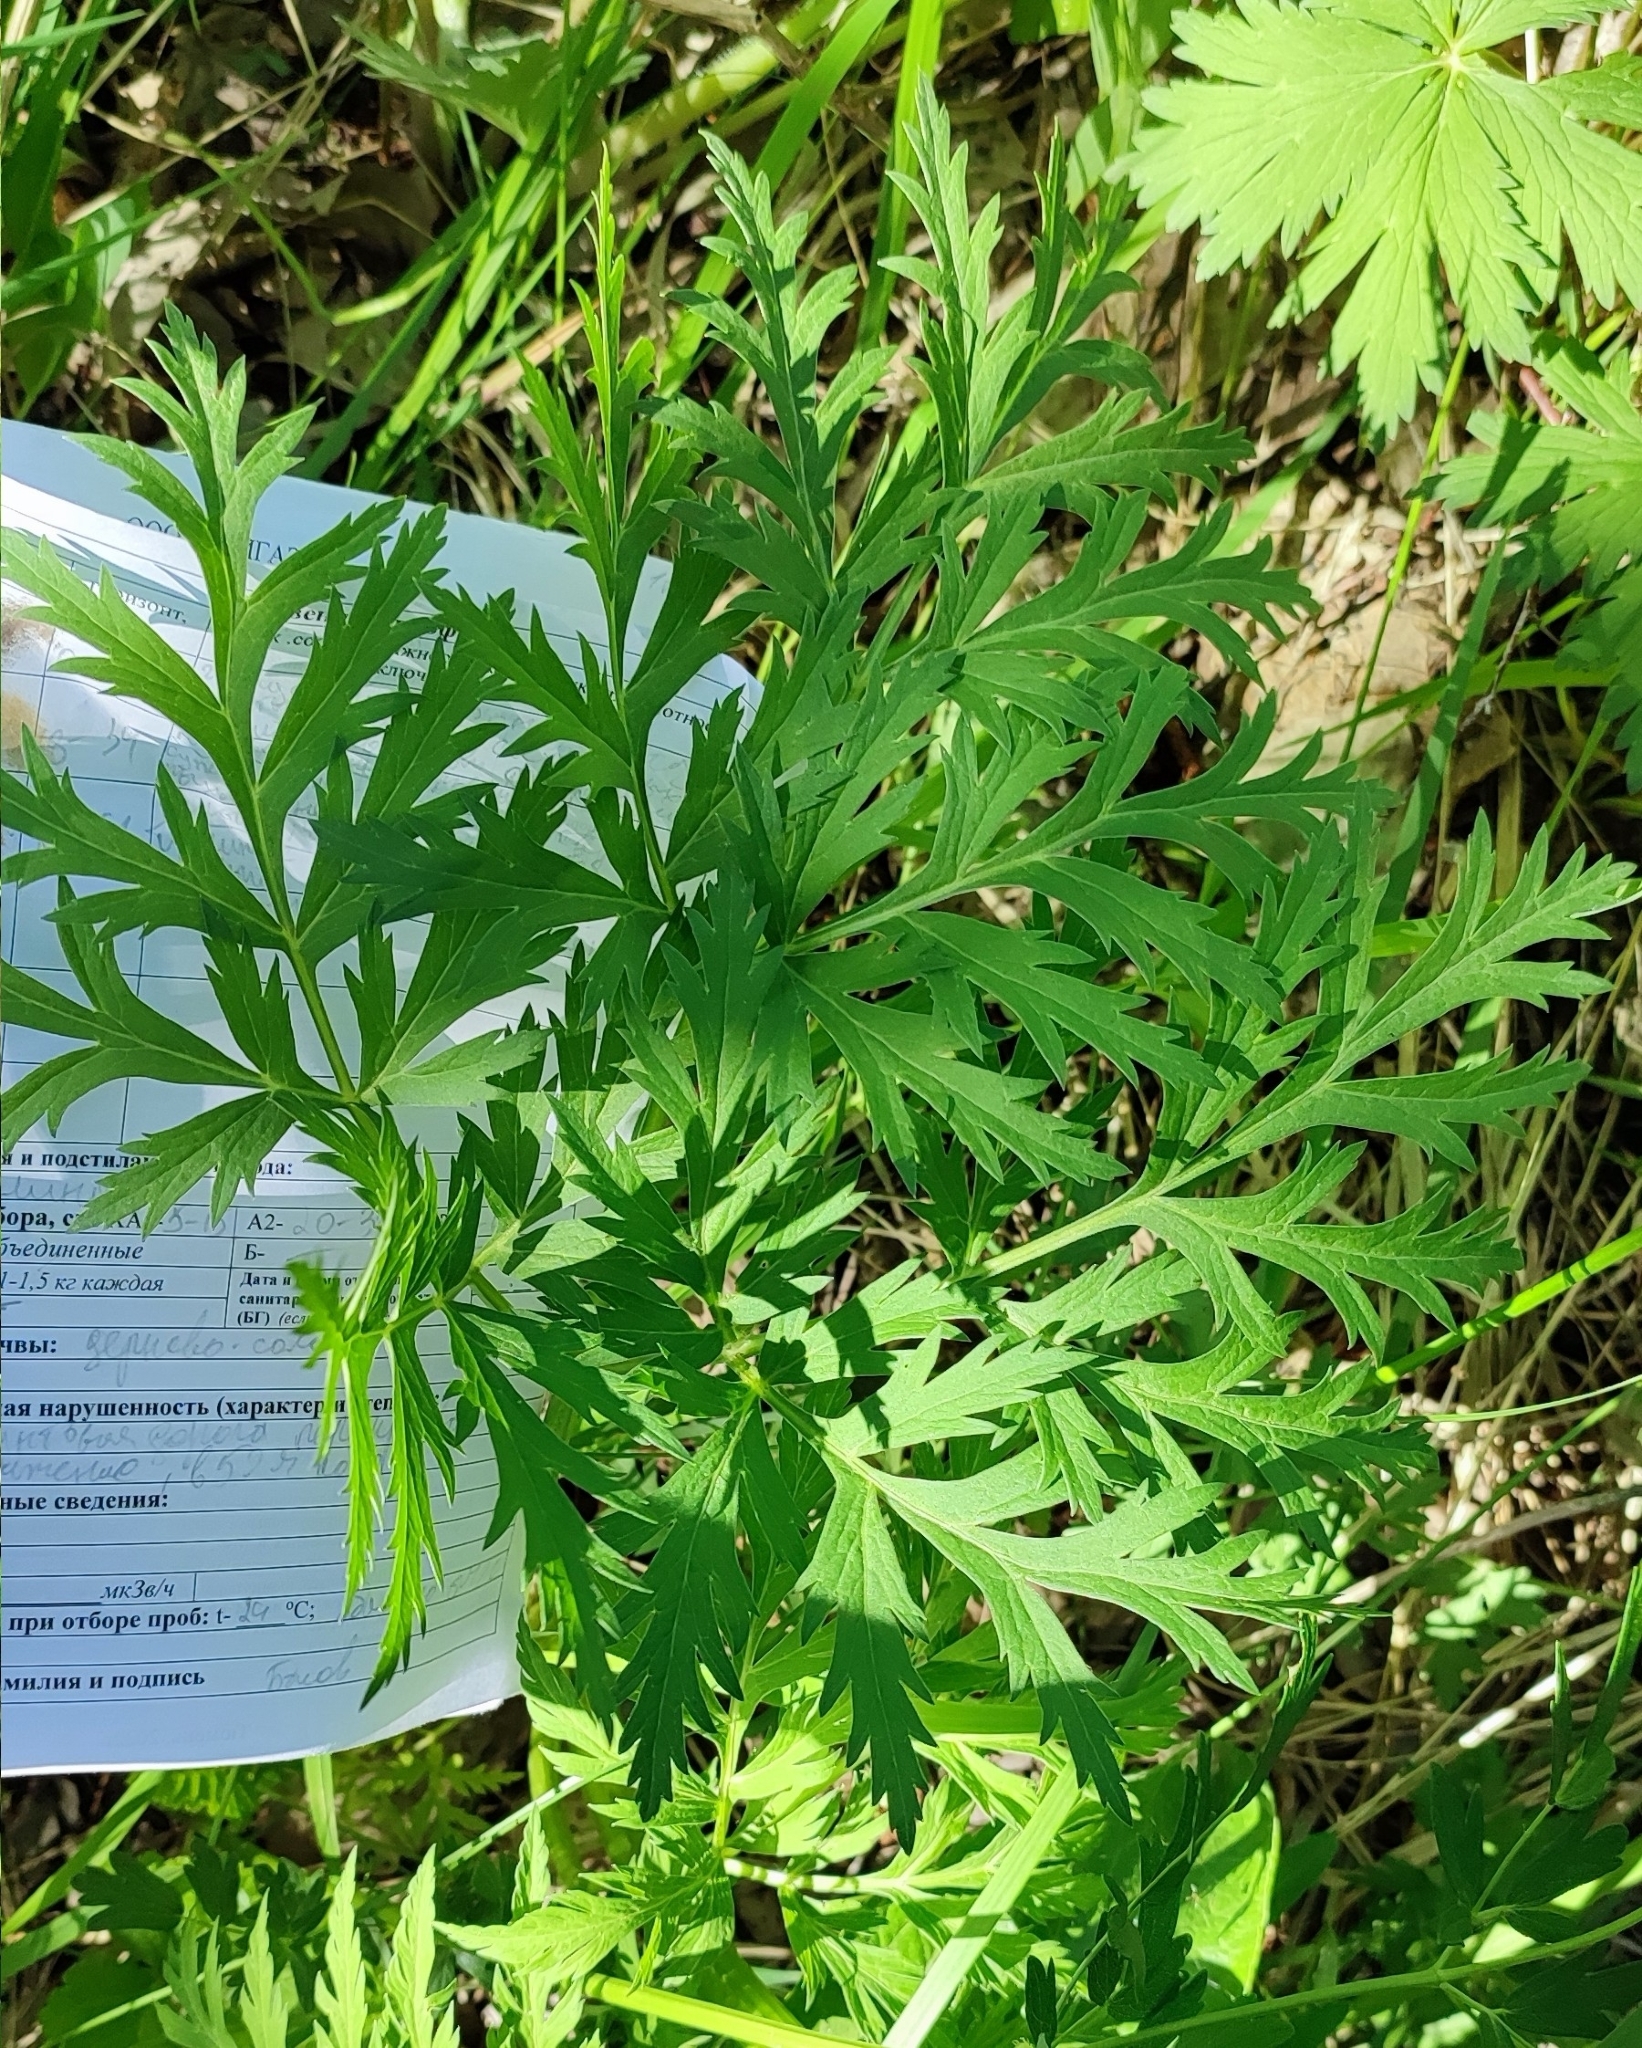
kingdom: Plantae
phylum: Tracheophyta
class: Magnoliopsida
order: Apiales
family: Apiaceae
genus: Pleurospermum
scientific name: Pleurospermum uralense
